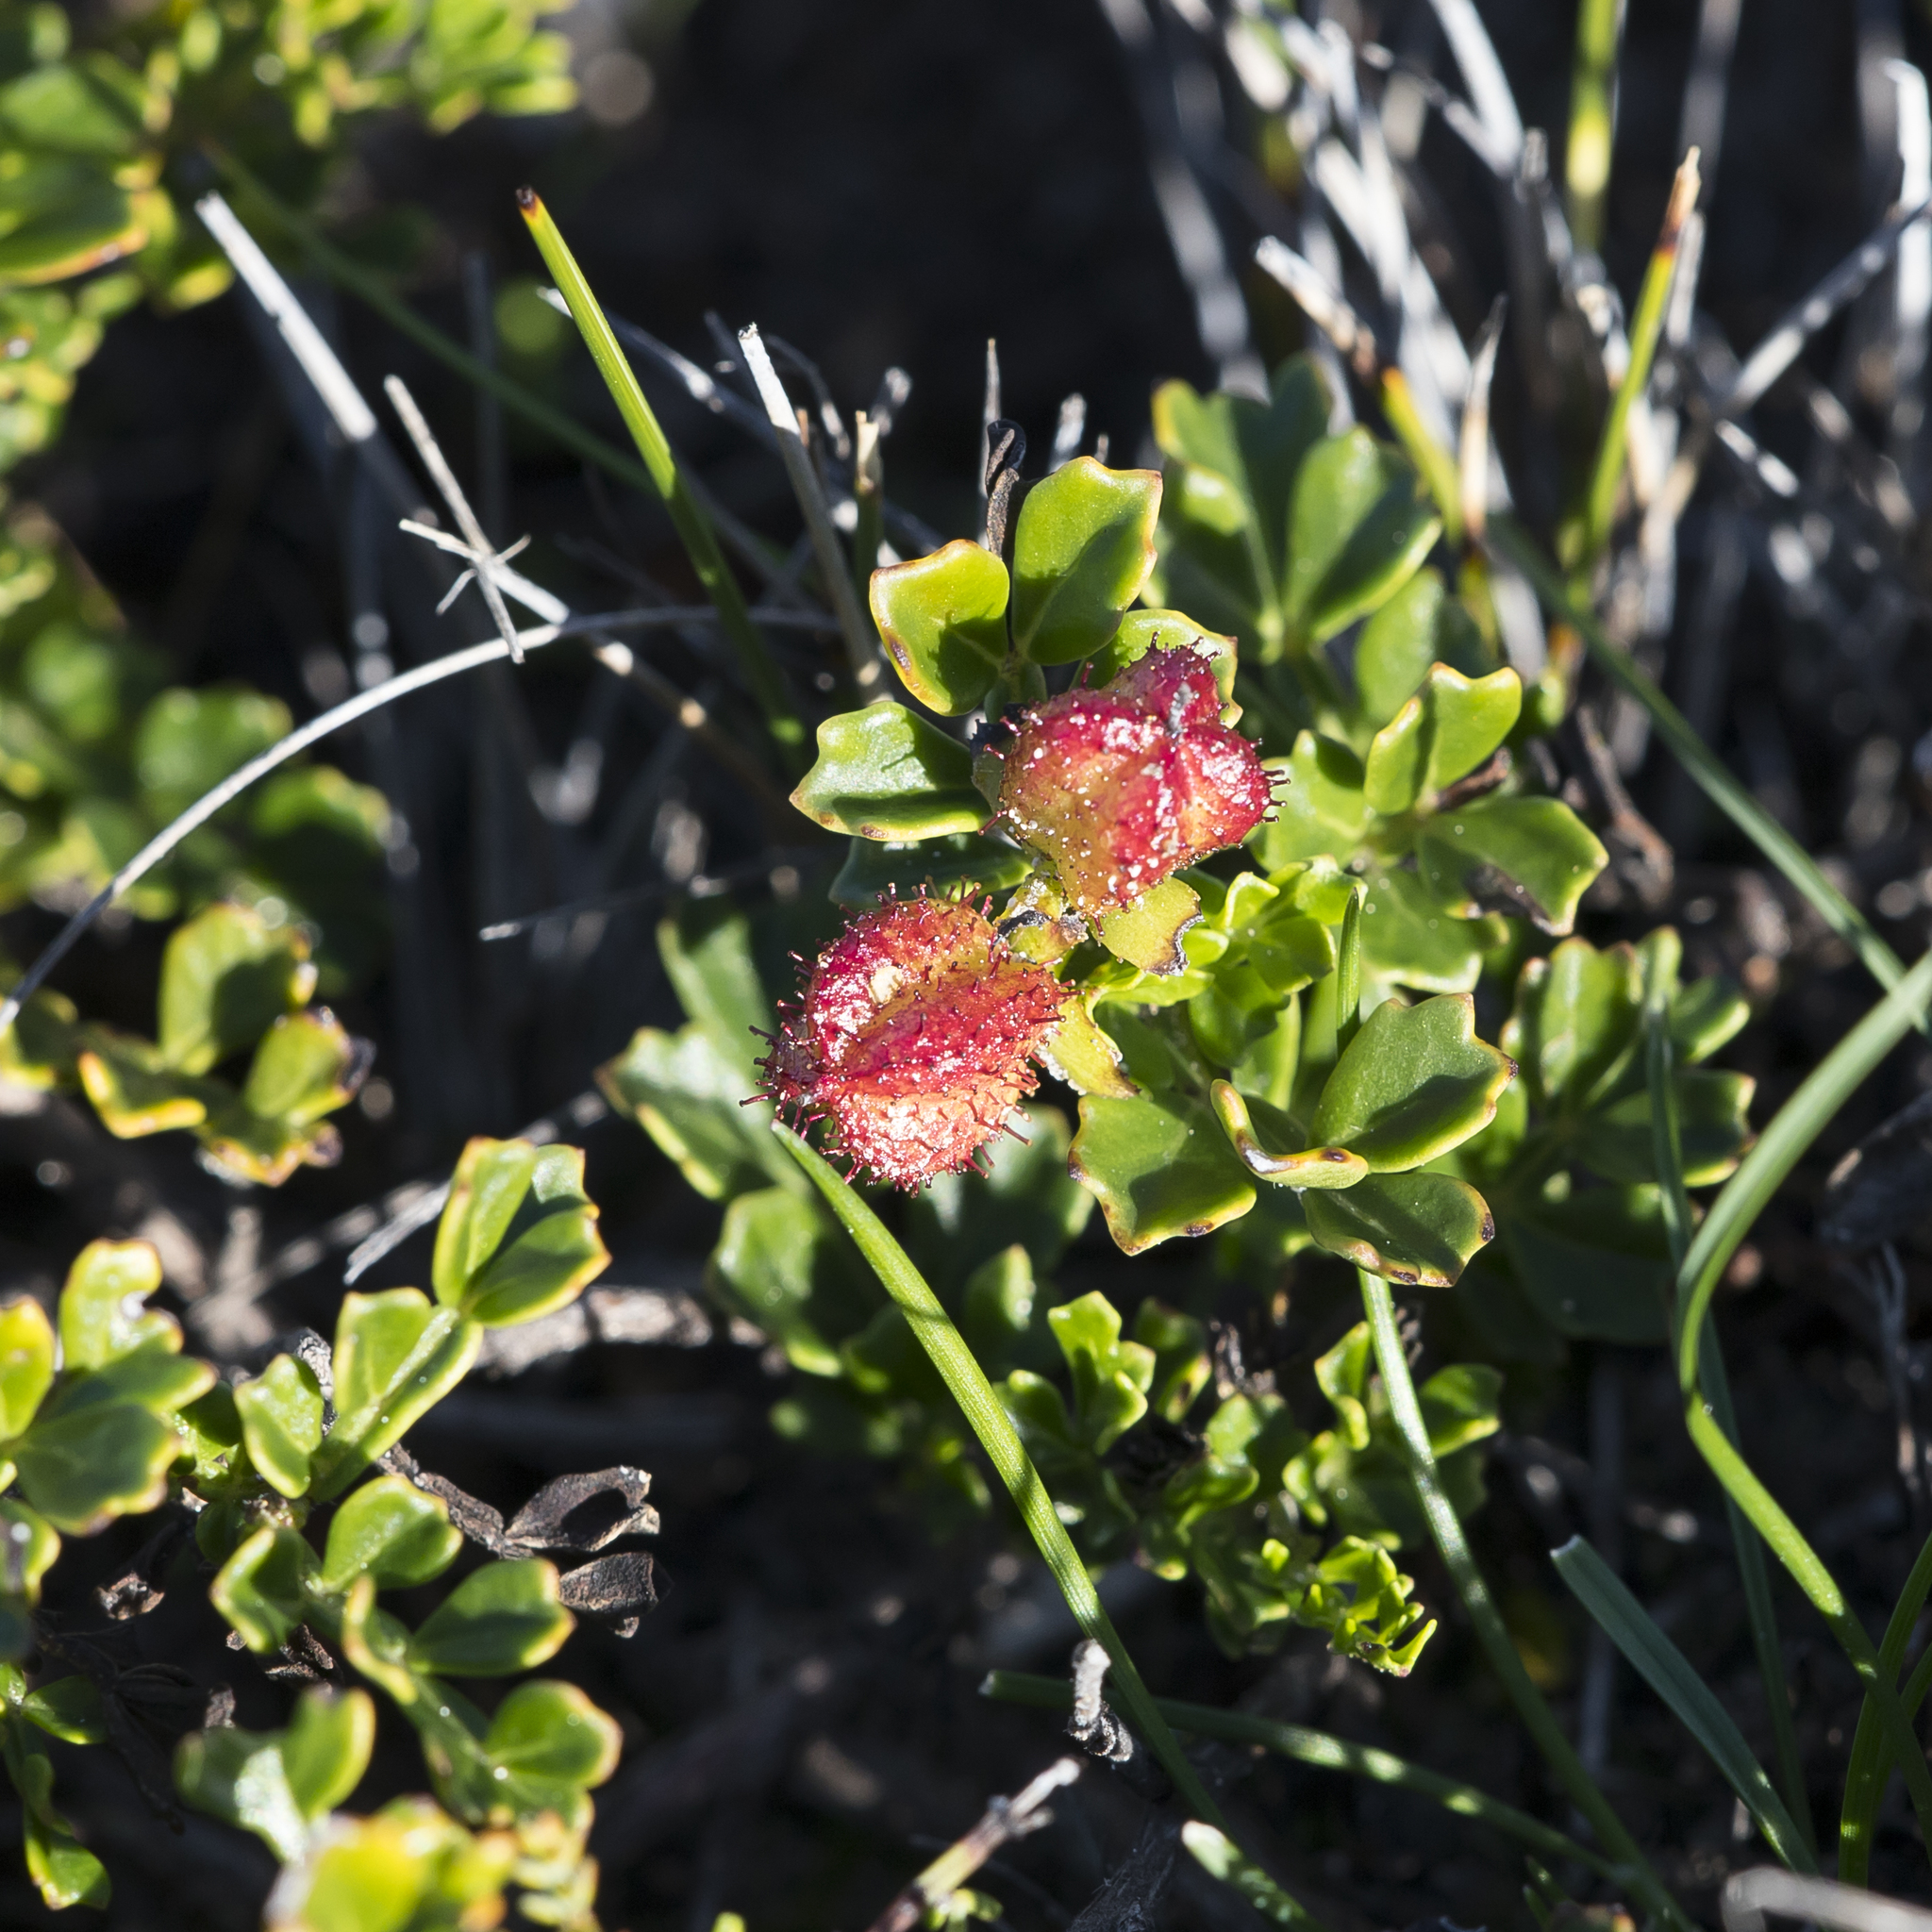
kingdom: Plantae
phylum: Tracheophyta
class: Magnoliopsida
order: Sapindales
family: Sapindaceae
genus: Dodonaea
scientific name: Dodonaea humilis
